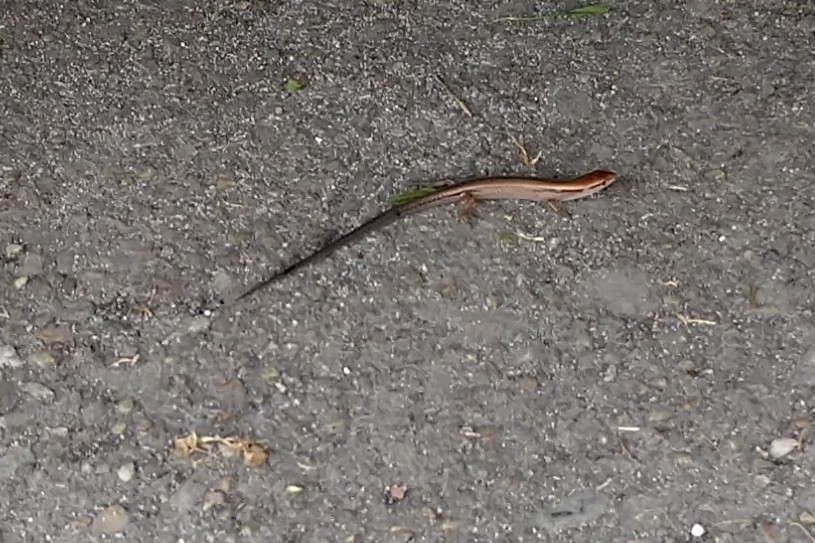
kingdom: Animalia
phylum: Chordata
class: Squamata
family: Scincidae
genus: Scincella
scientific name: Scincella lateralis
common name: Ground skink
